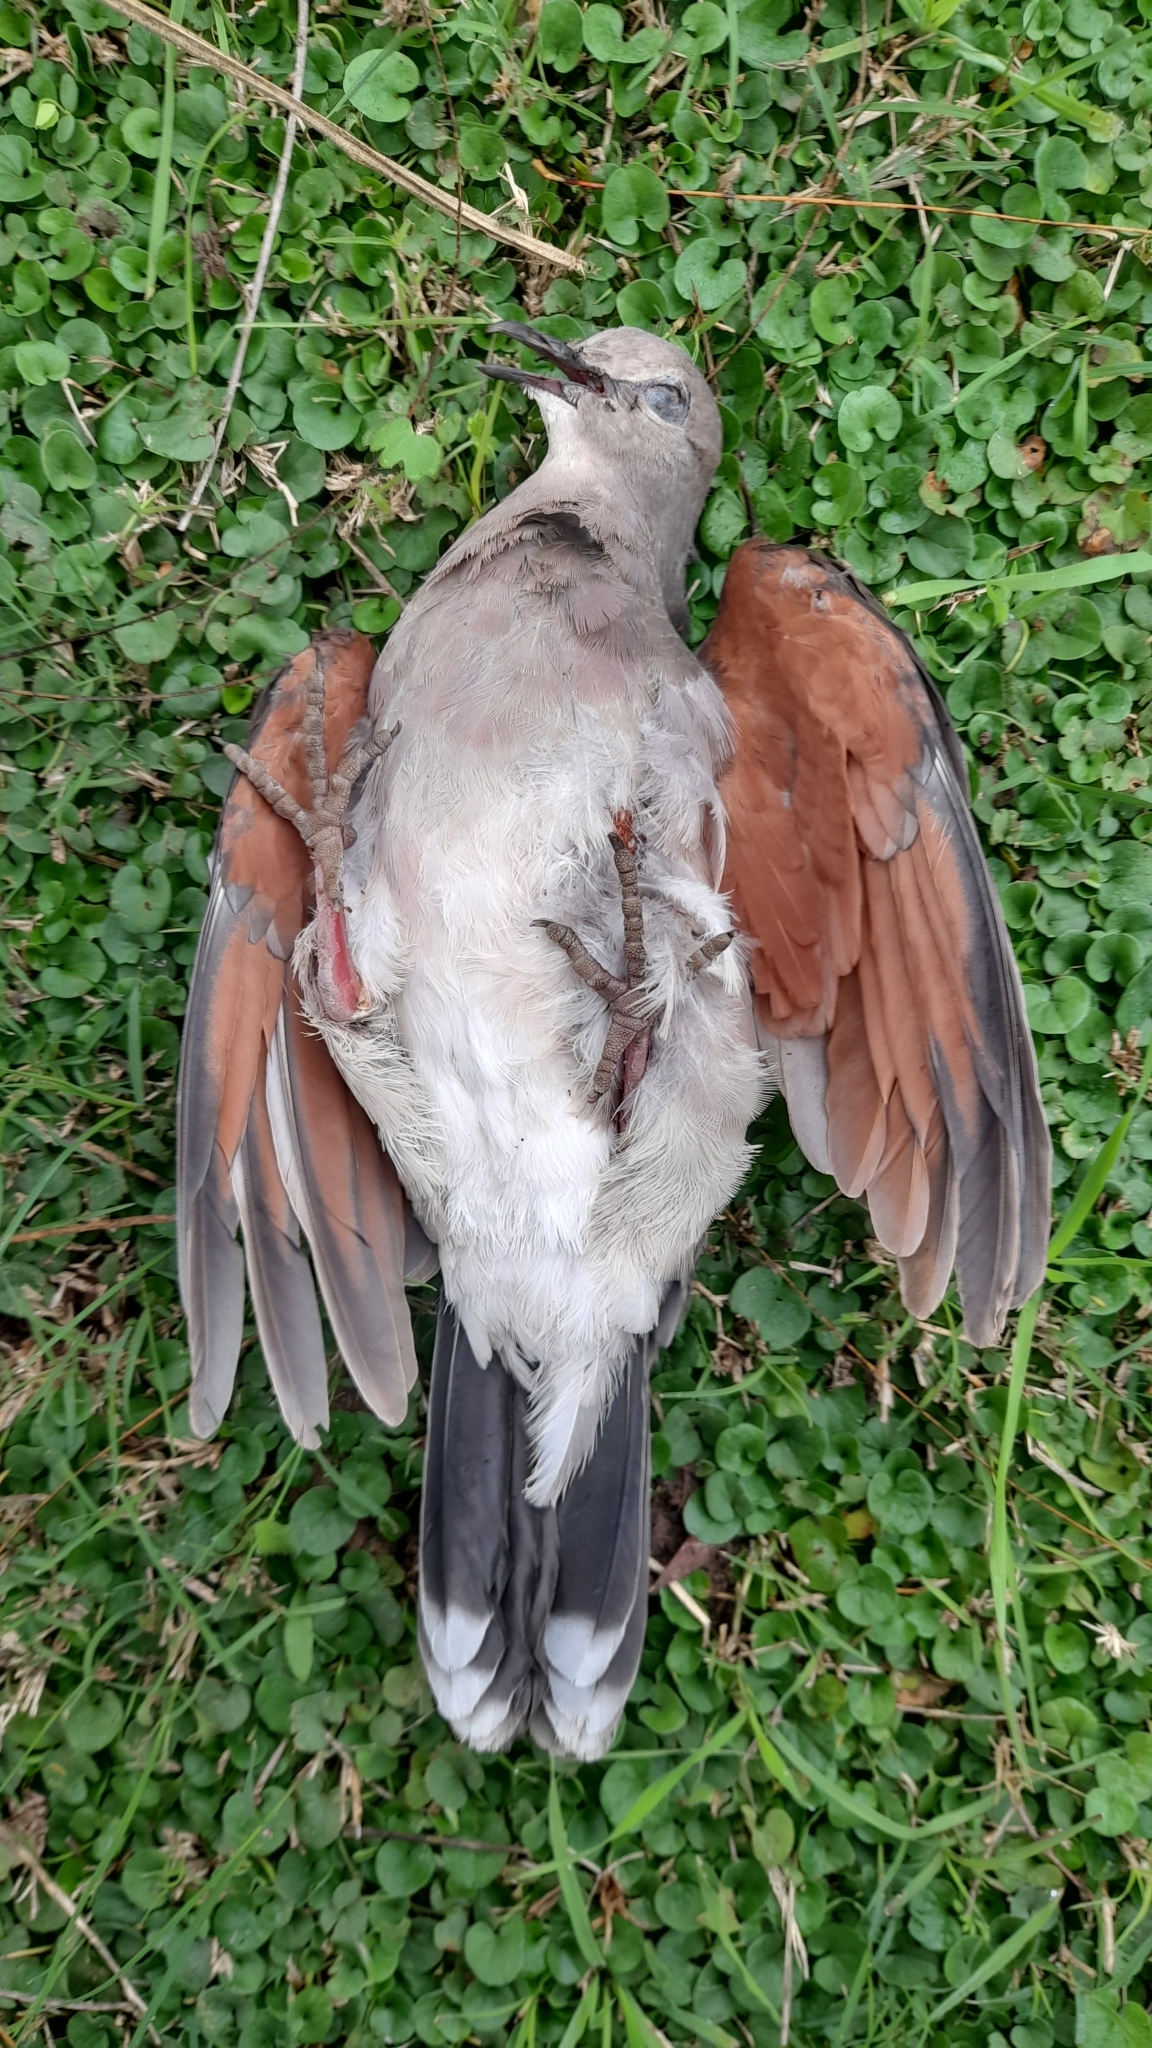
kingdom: Animalia
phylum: Chordata
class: Aves
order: Columbiformes
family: Columbidae
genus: Leptotila
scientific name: Leptotila verreauxi
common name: White-tipped dove
